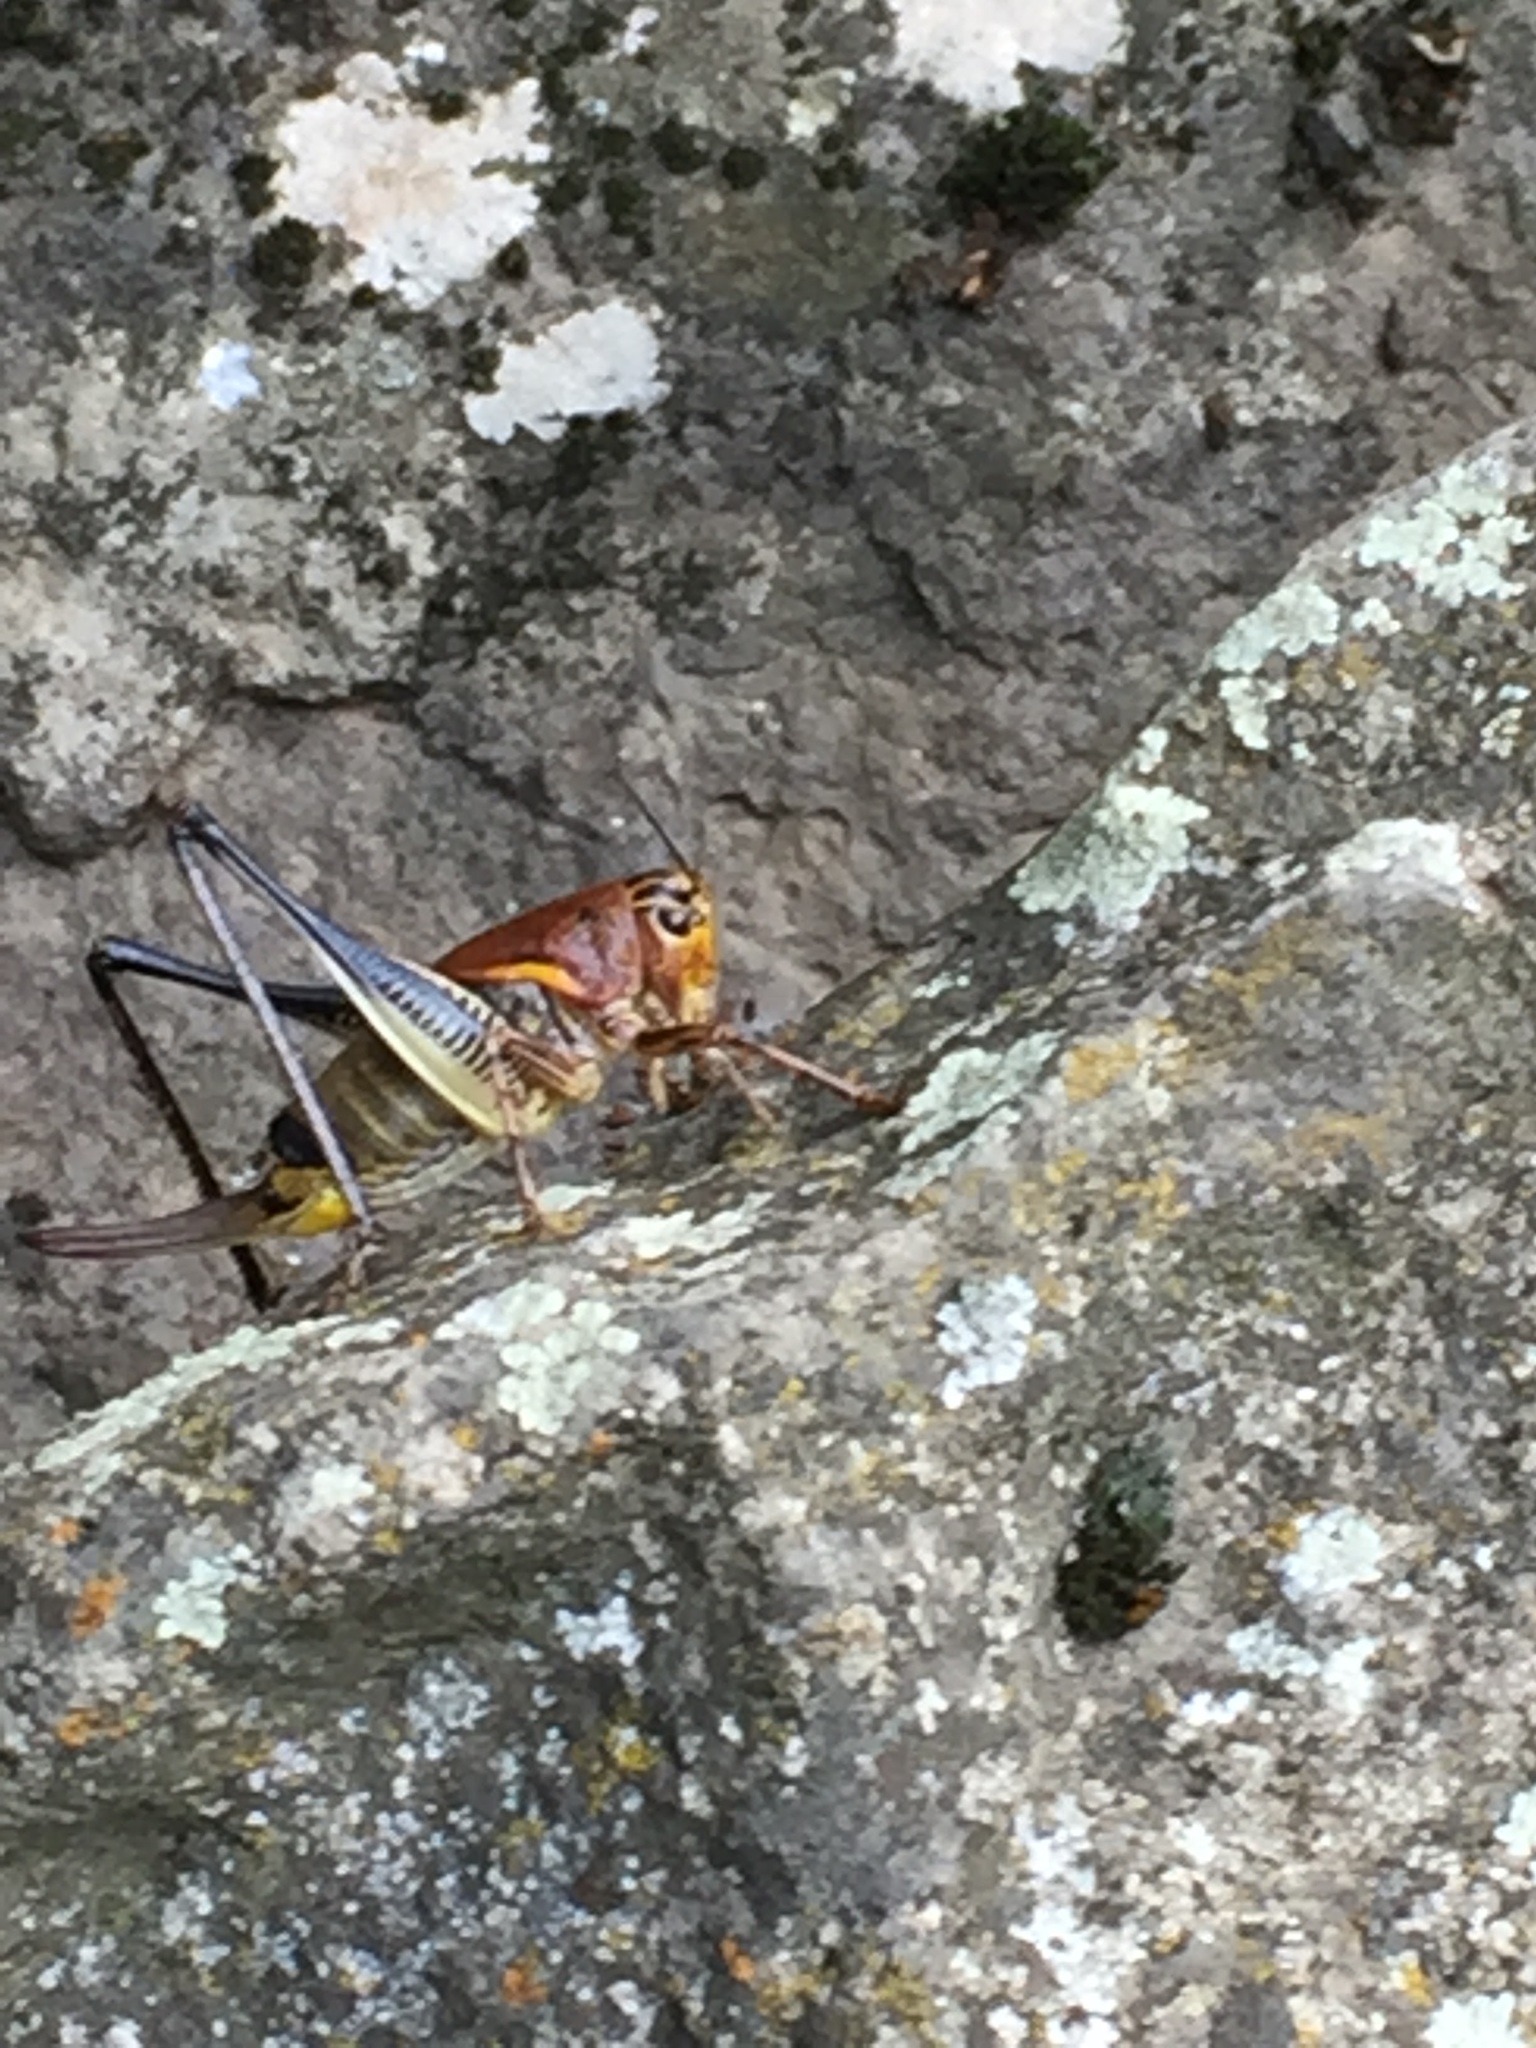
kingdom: Animalia
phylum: Arthropoda
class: Insecta
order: Orthoptera
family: Tettigoniidae
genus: Uvarovistia
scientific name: Uvarovistia satunini
